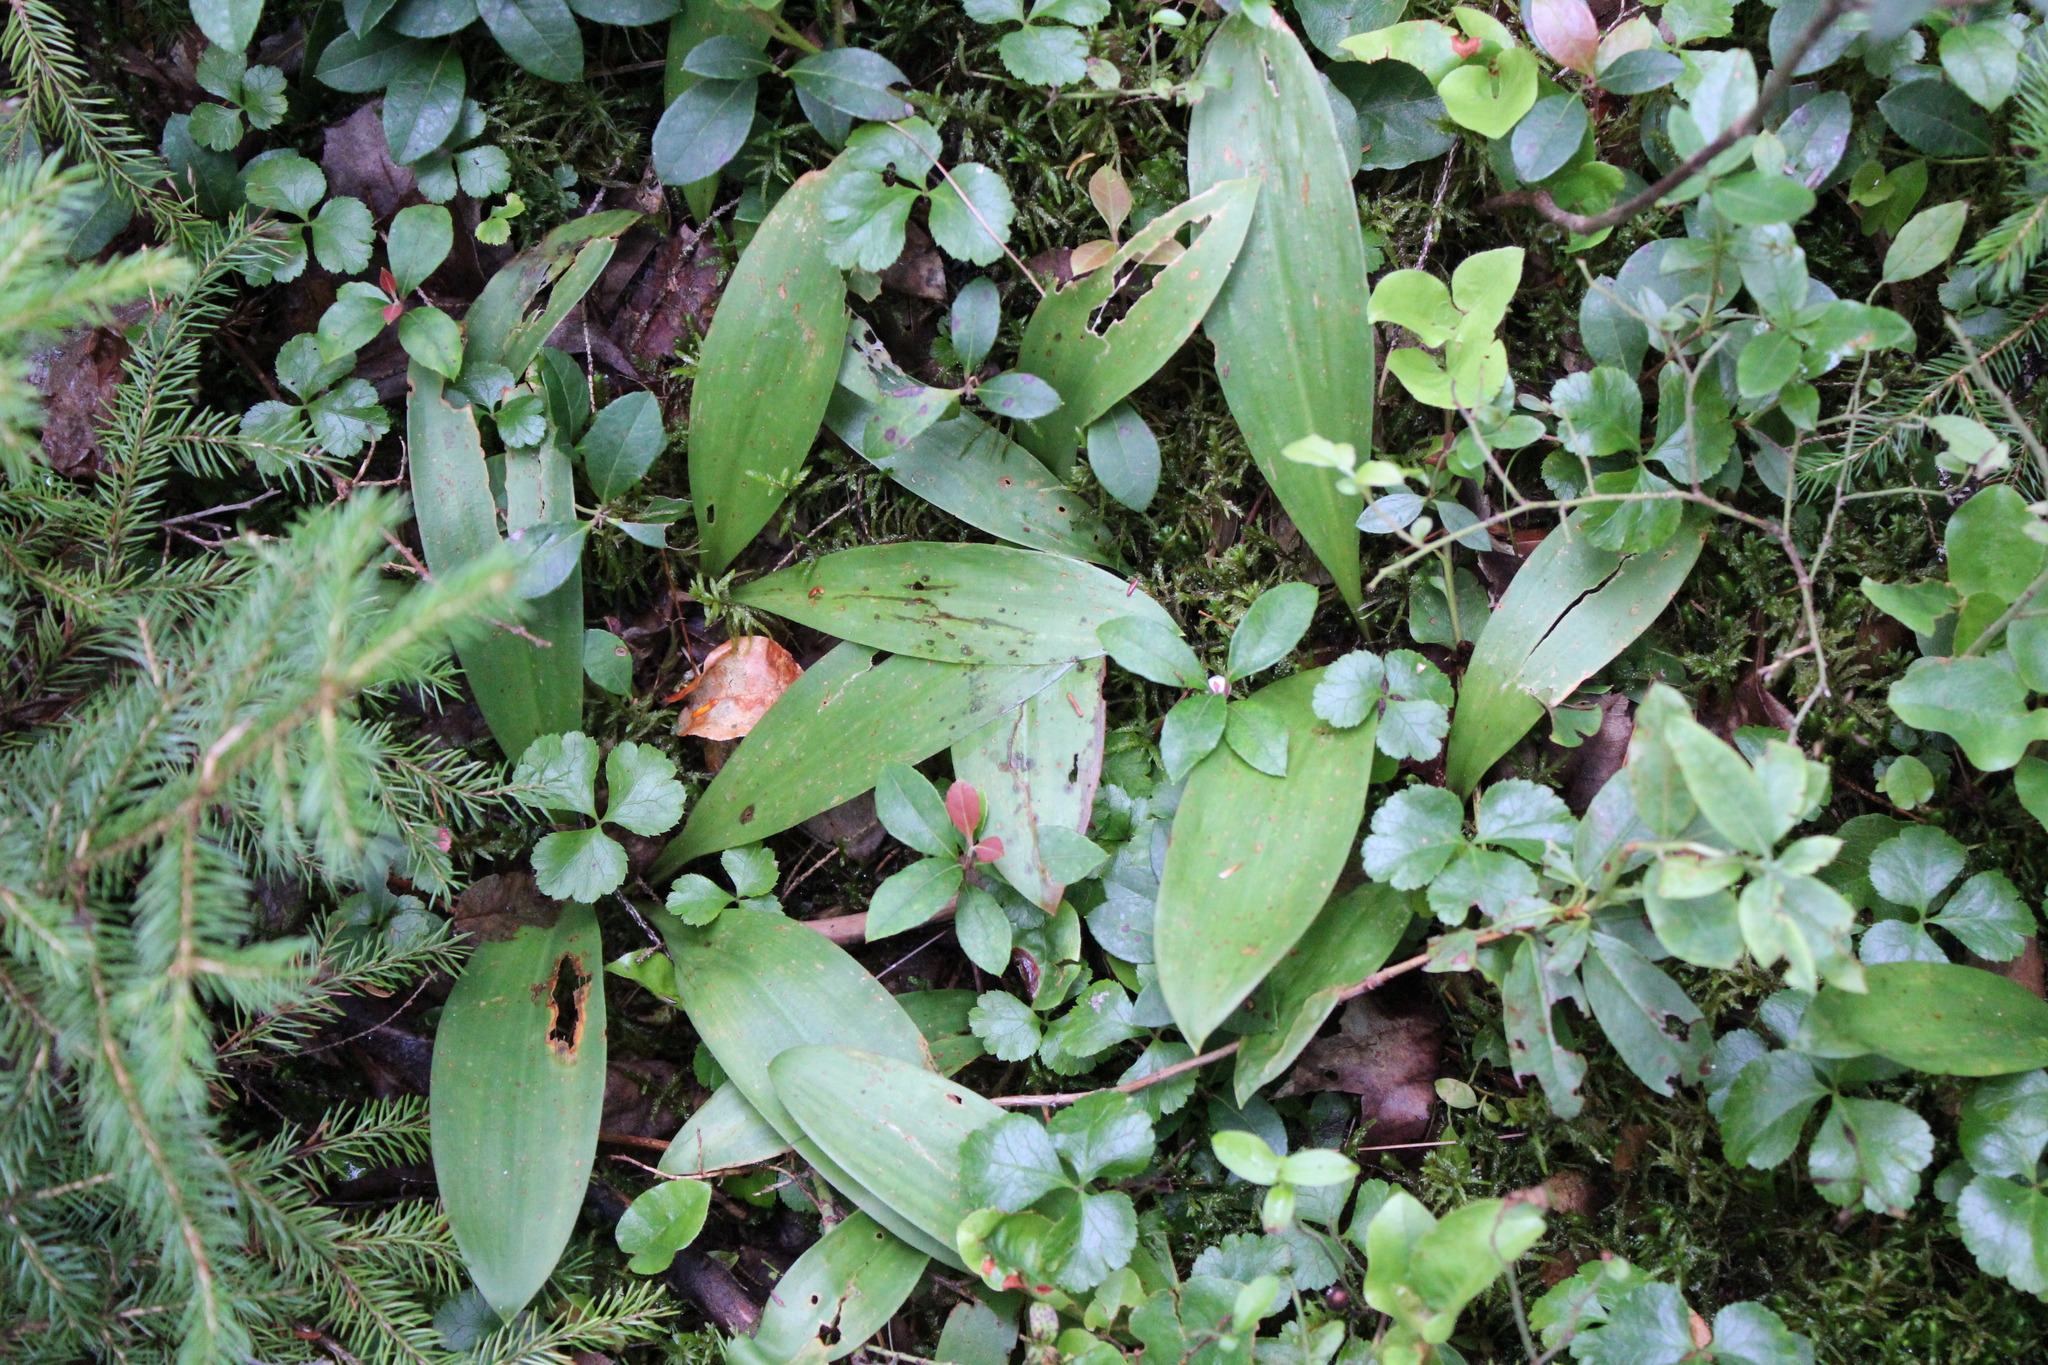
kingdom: Plantae
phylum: Tracheophyta
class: Liliopsida
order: Liliales
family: Liliaceae
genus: Clintonia
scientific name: Clintonia borealis
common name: Yellow clintonia
